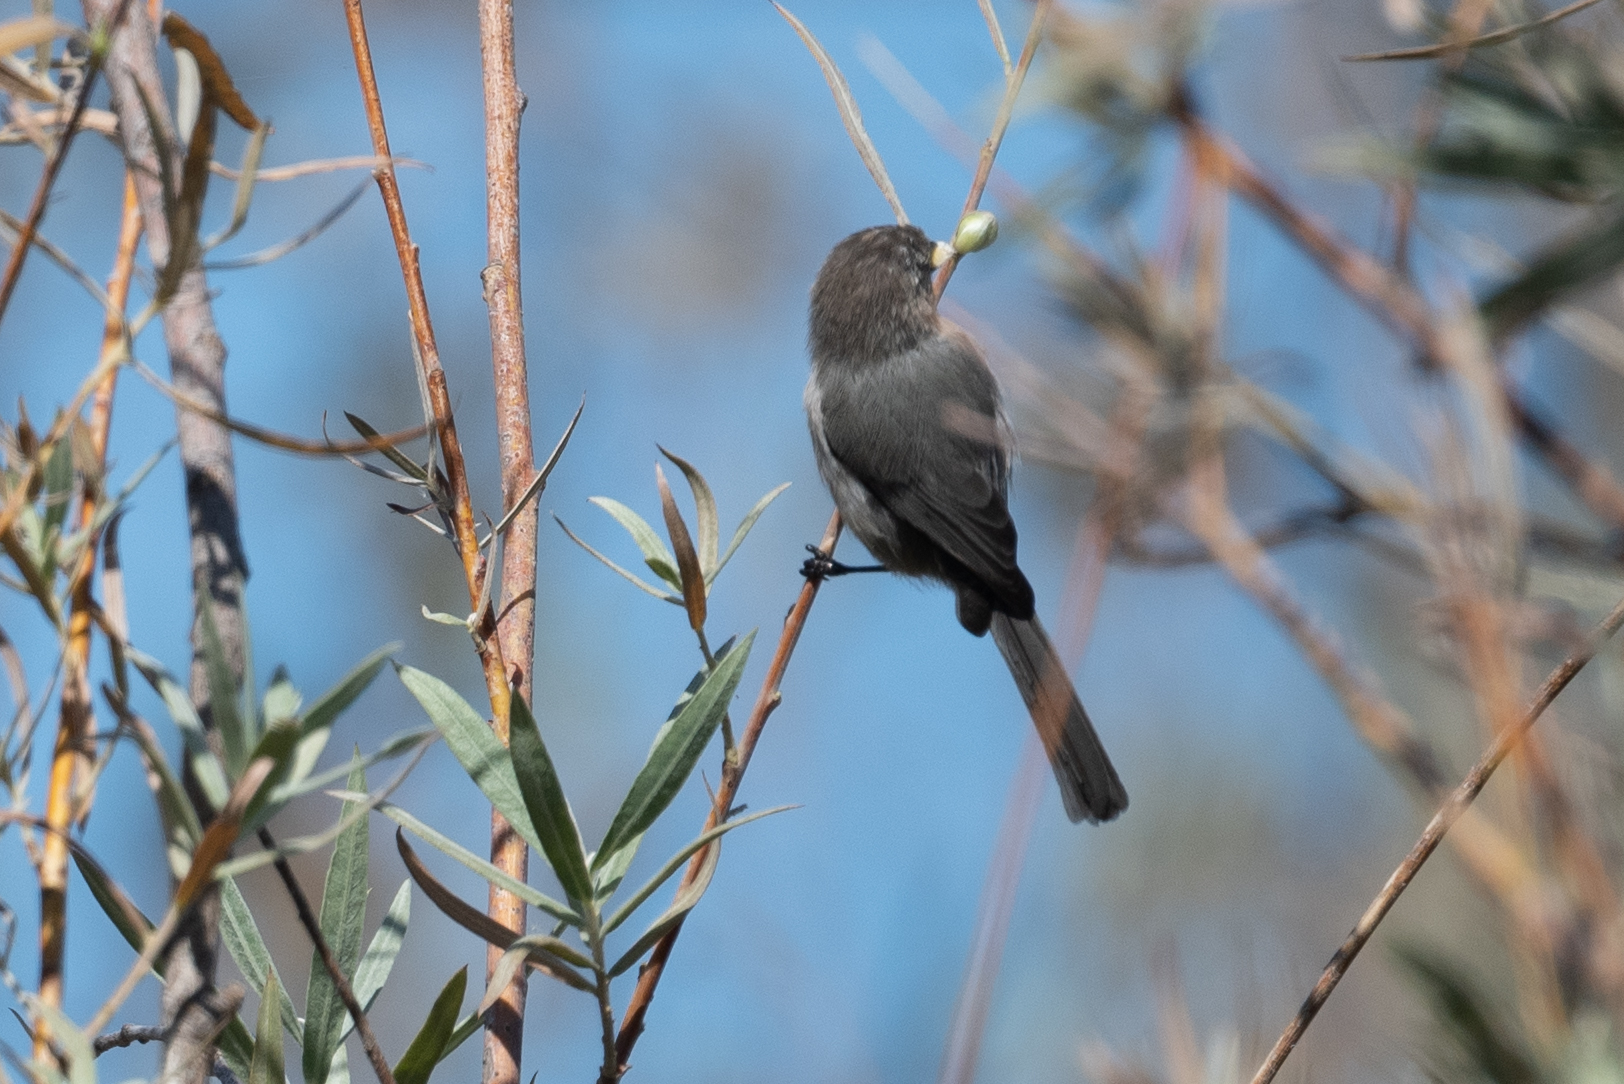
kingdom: Animalia
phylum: Chordata
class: Aves
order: Passeriformes
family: Aegithalidae
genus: Psaltriparus
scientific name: Psaltriparus minimus
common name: American bushtit
